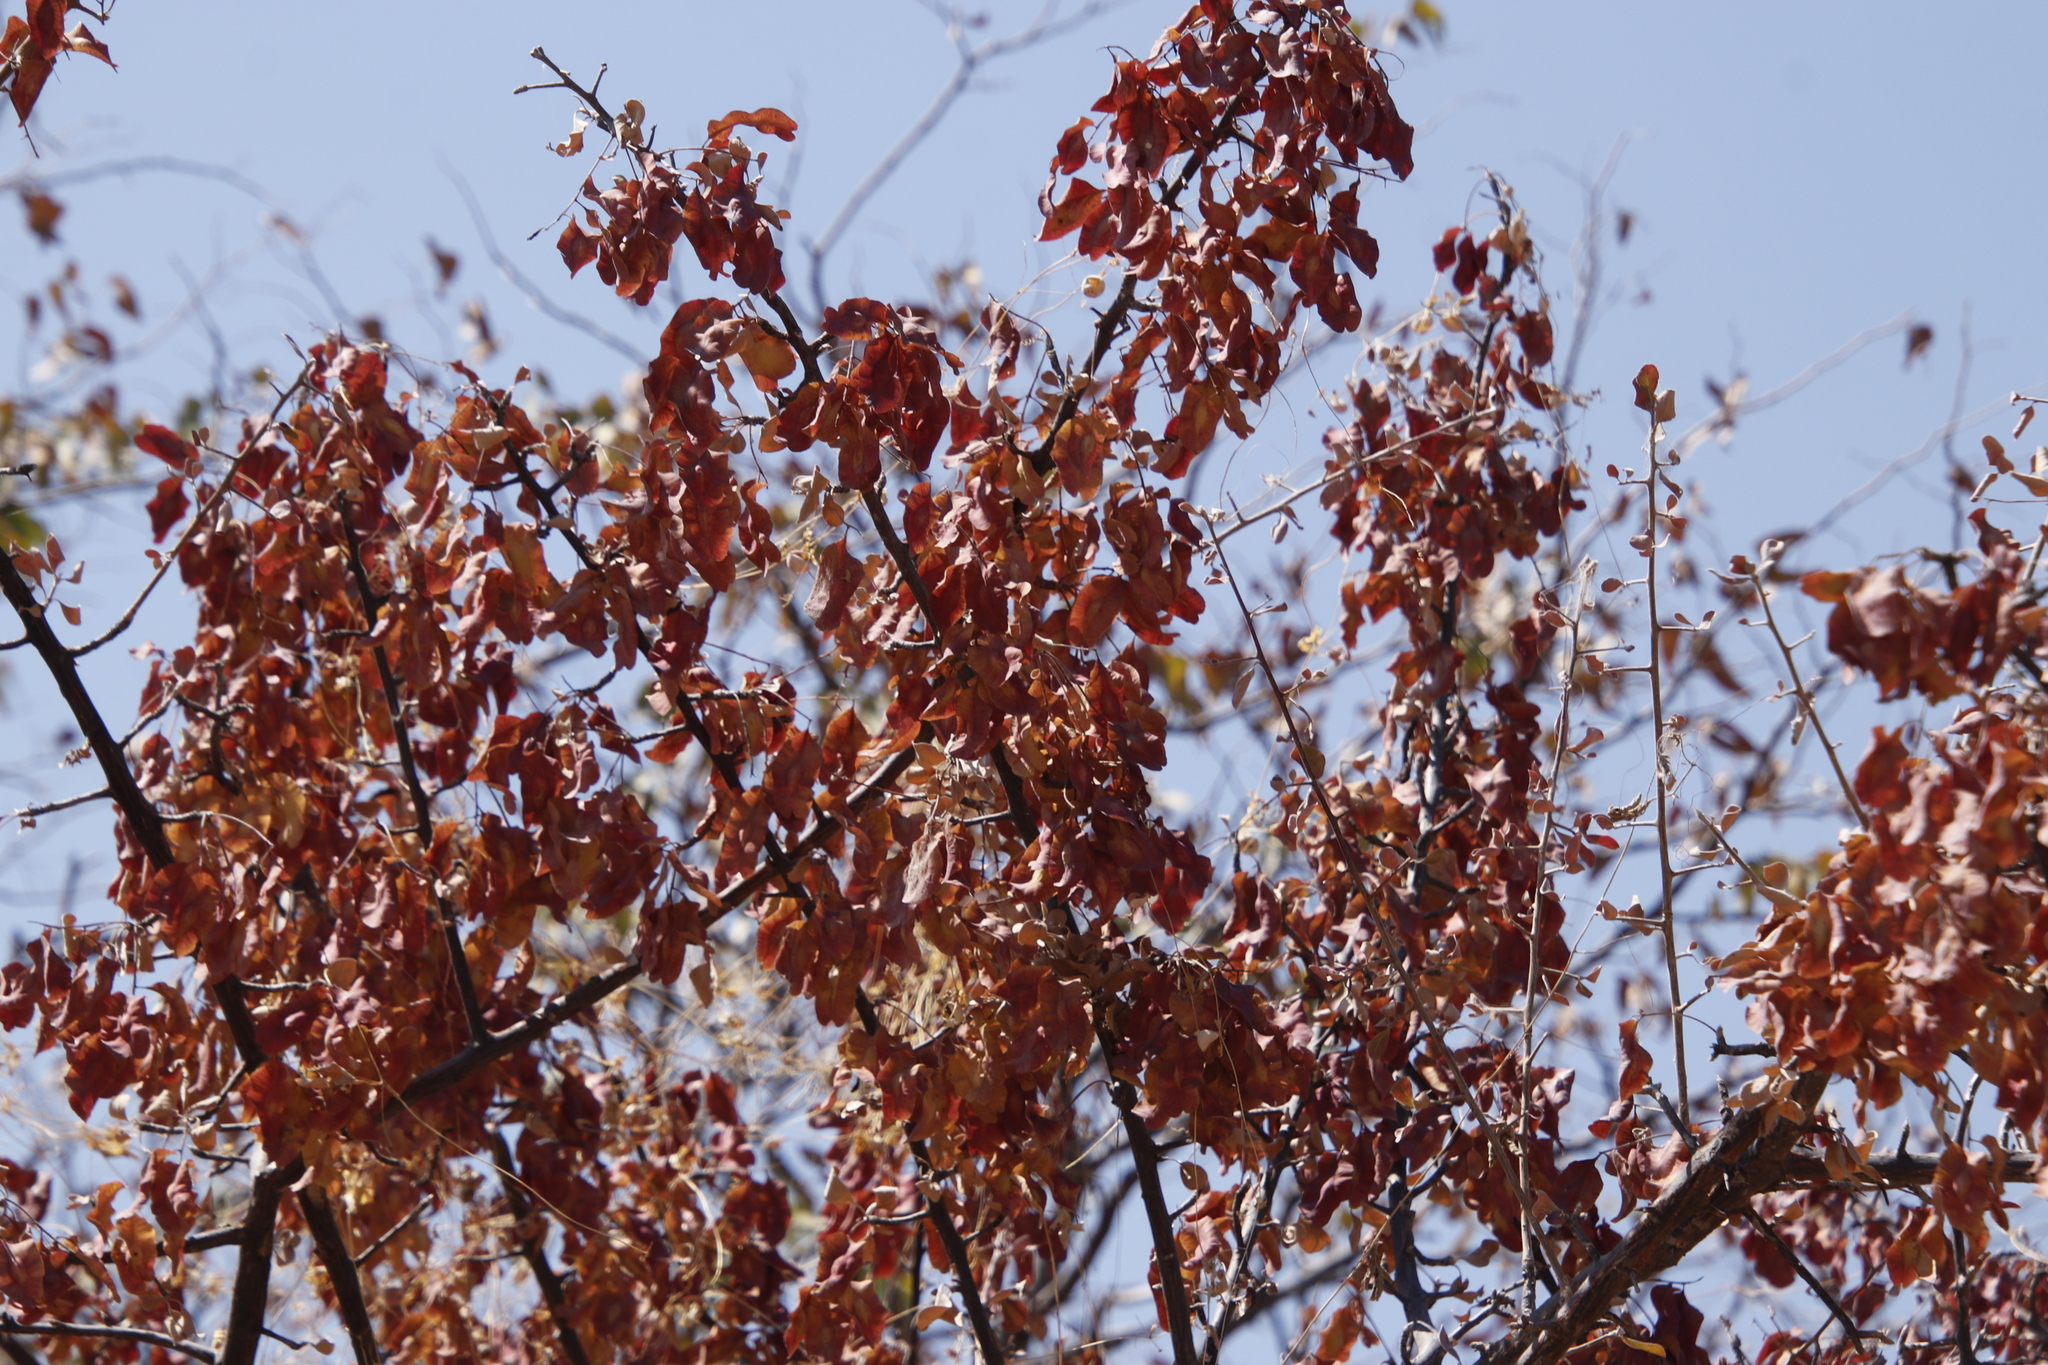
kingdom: Plantae
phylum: Tracheophyta
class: Magnoliopsida
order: Myrtales
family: Combretaceae
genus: Terminalia
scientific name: Terminalia prunioides
